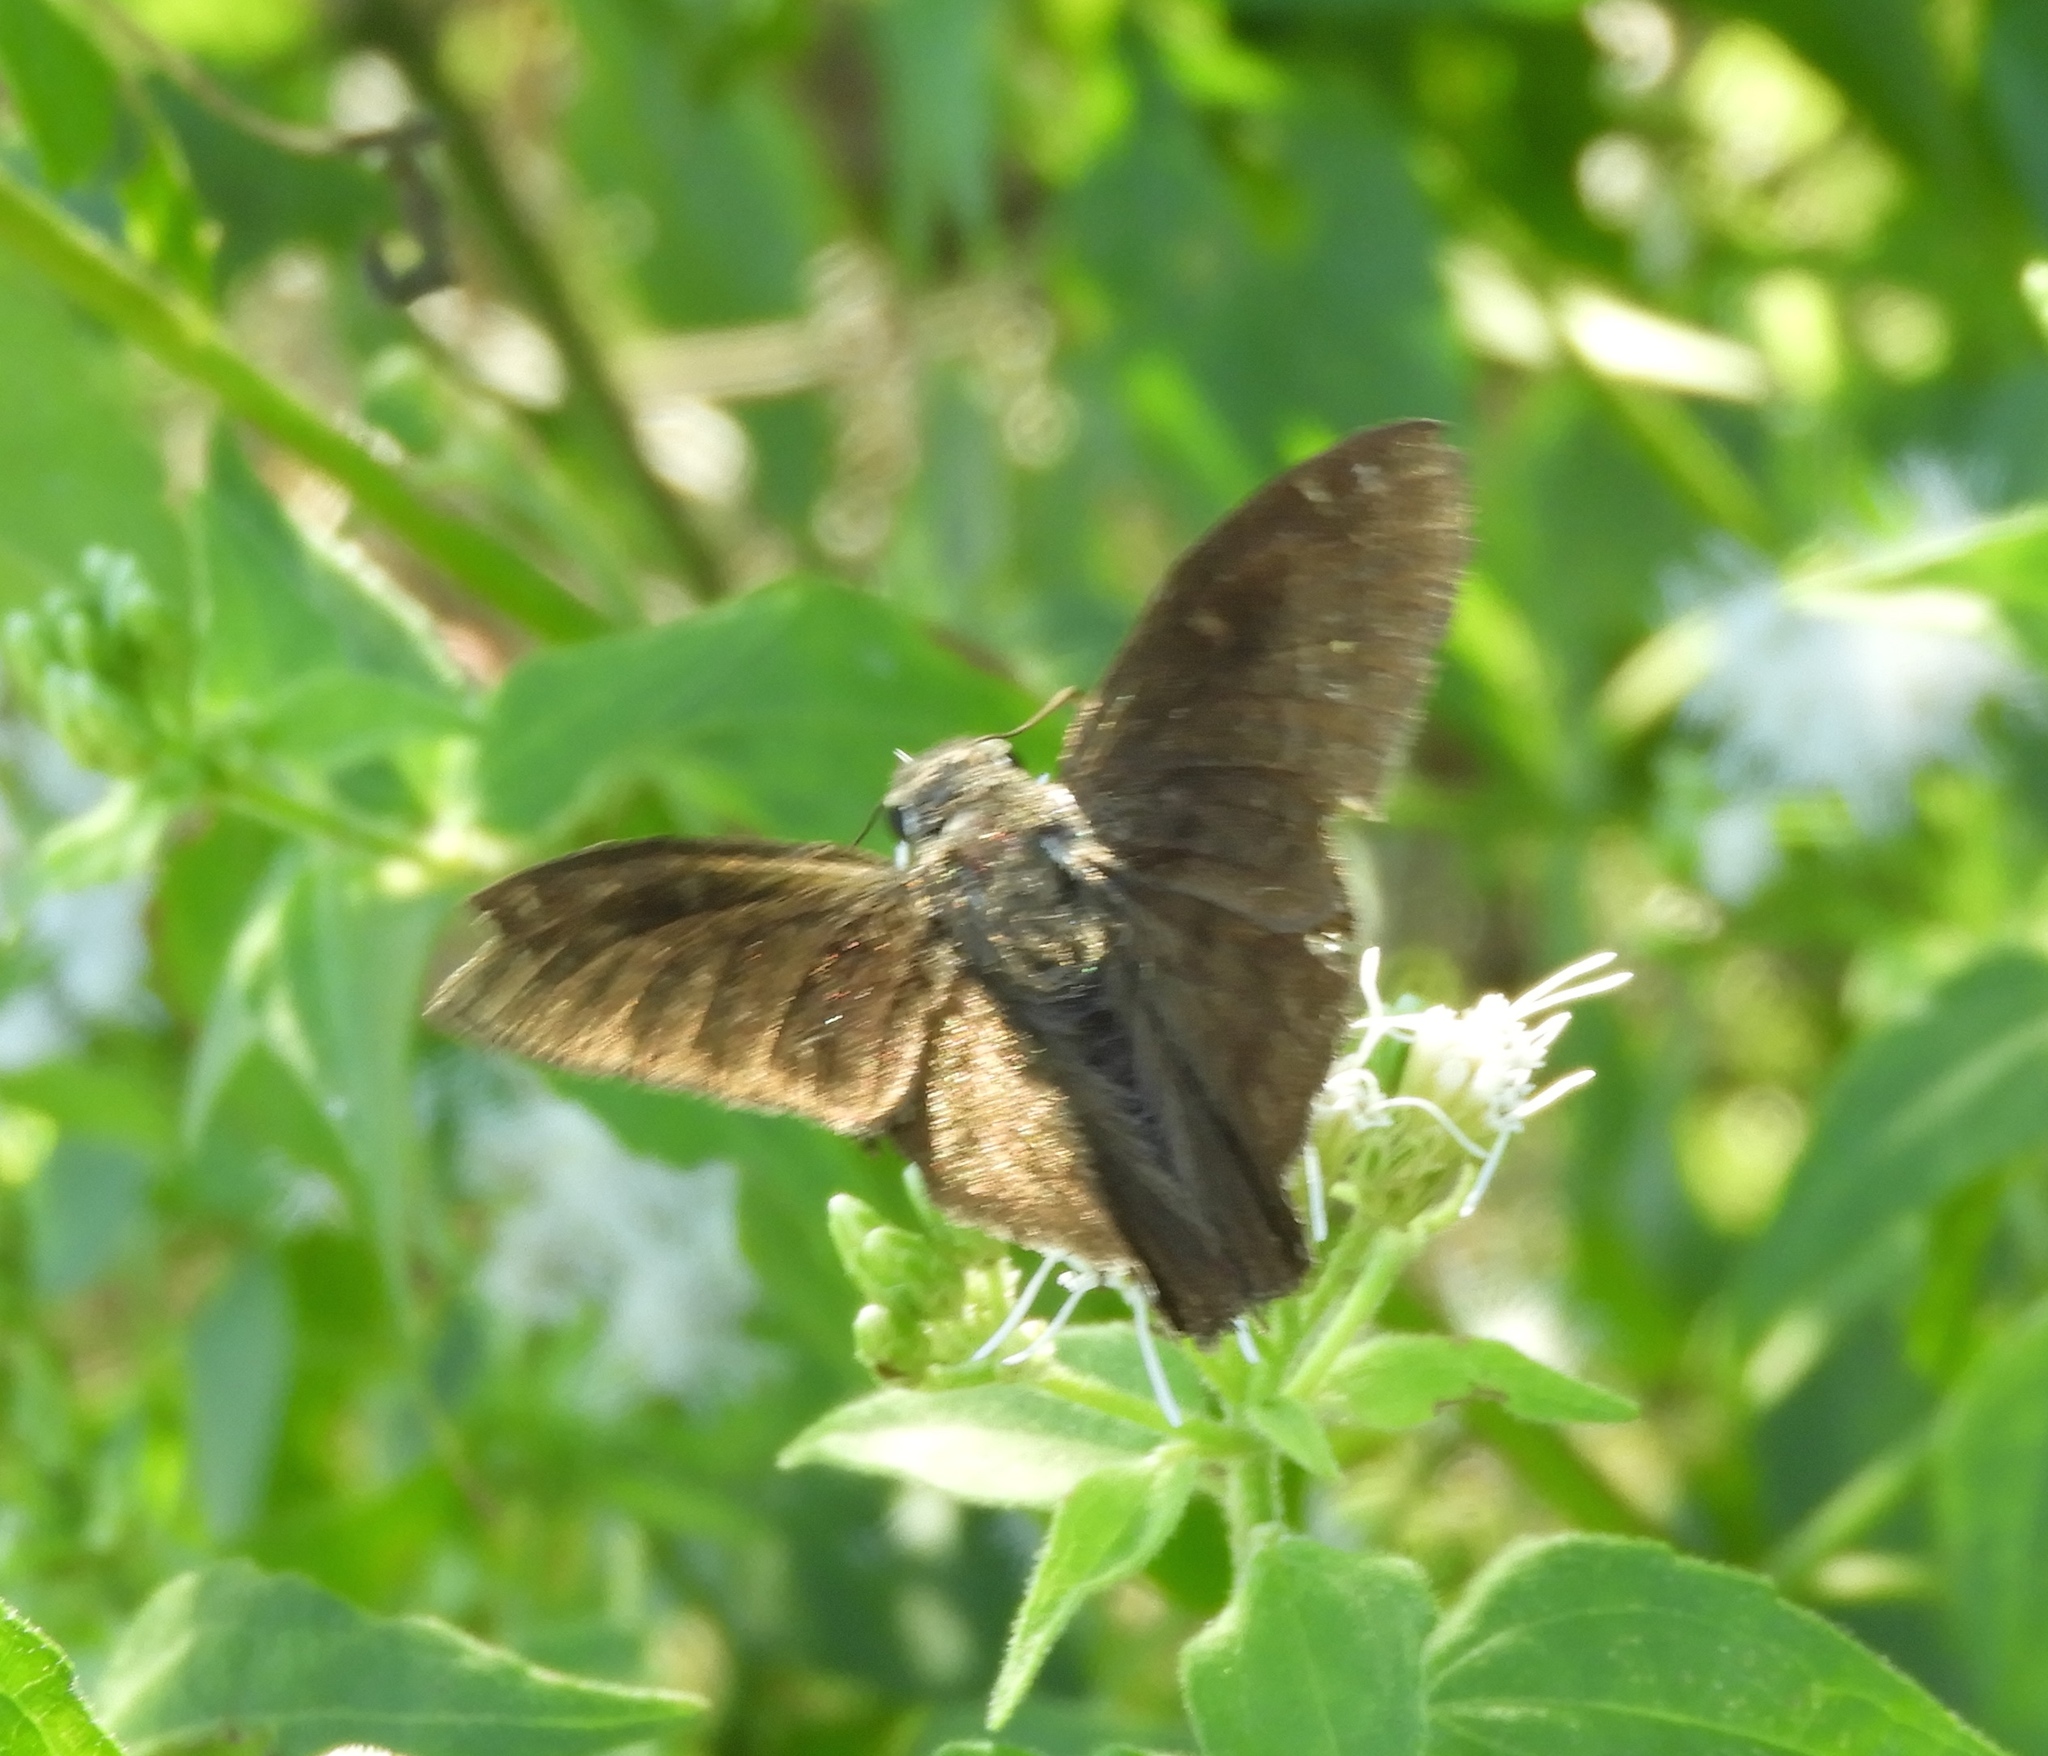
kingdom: Animalia
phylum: Arthropoda
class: Insecta
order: Lepidoptera
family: Hesperiidae
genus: Urbanus
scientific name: Urbanus procne
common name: Brown longtail
